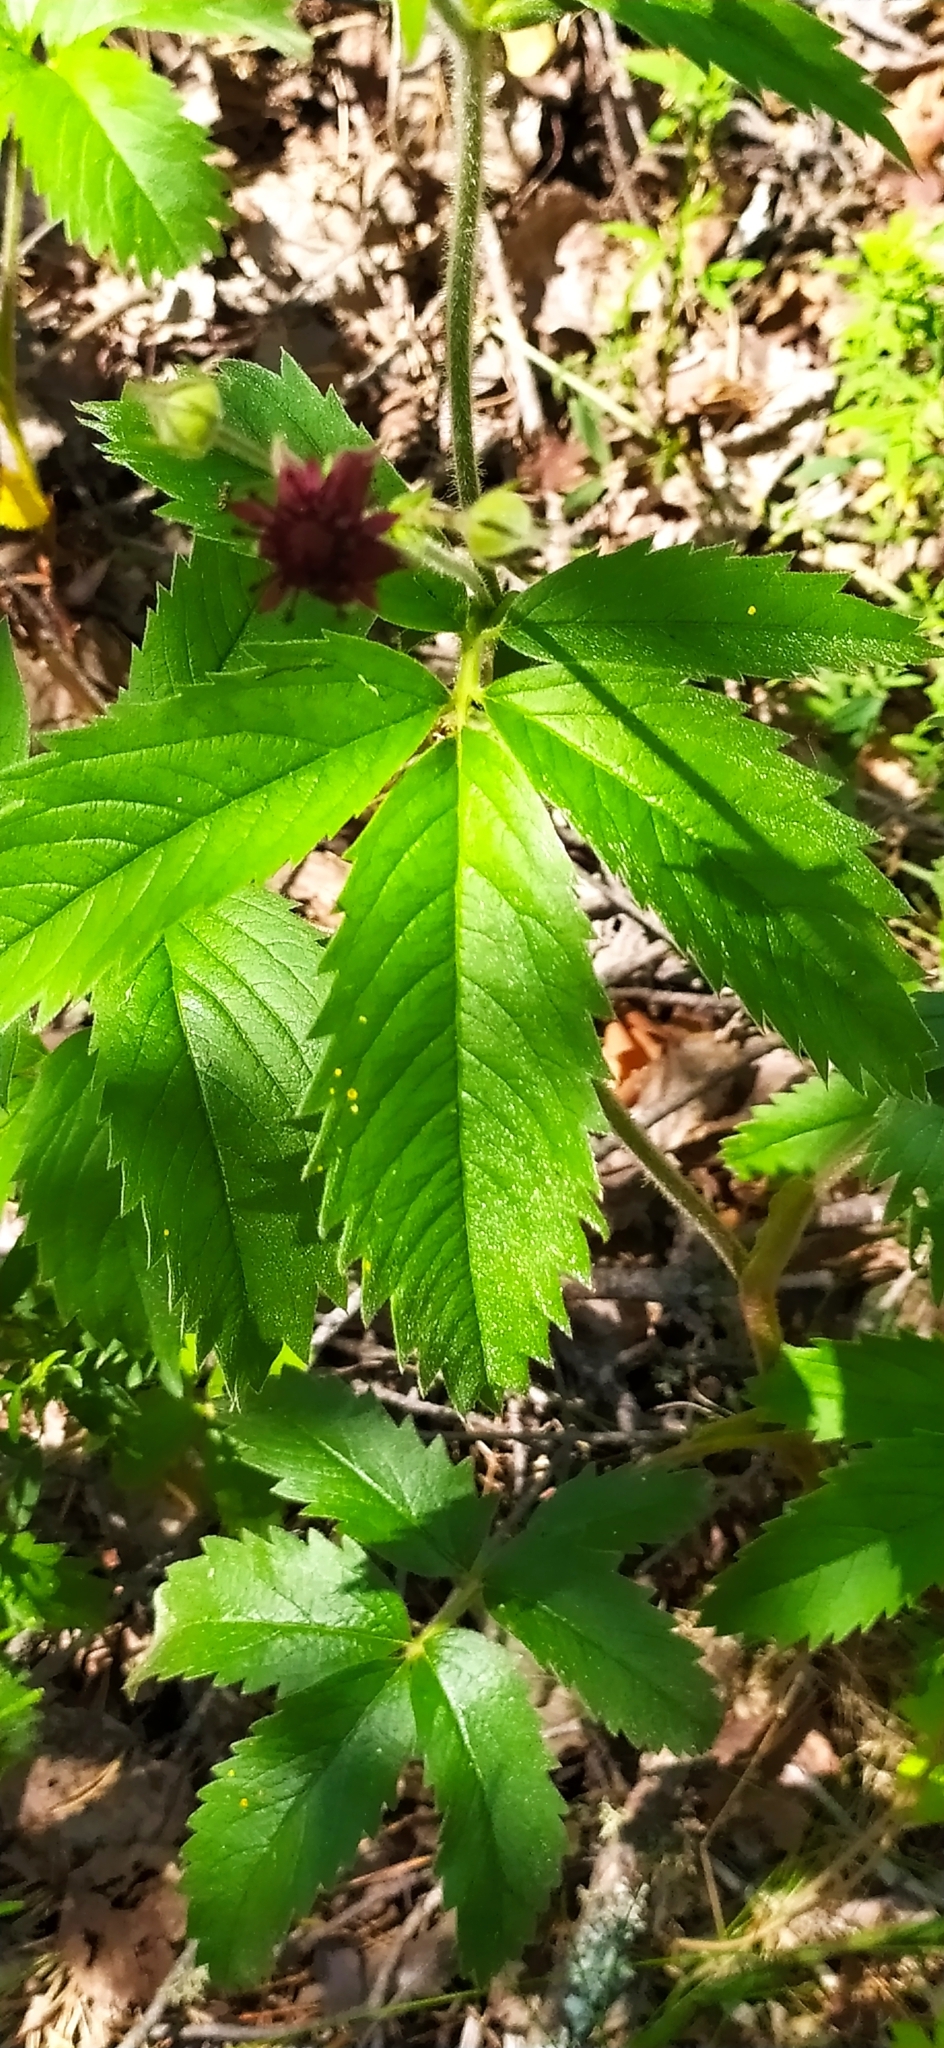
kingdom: Plantae
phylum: Tracheophyta
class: Magnoliopsida
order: Rosales
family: Rosaceae
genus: Comarum
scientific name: Comarum palustre
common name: Marsh cinquefoil
